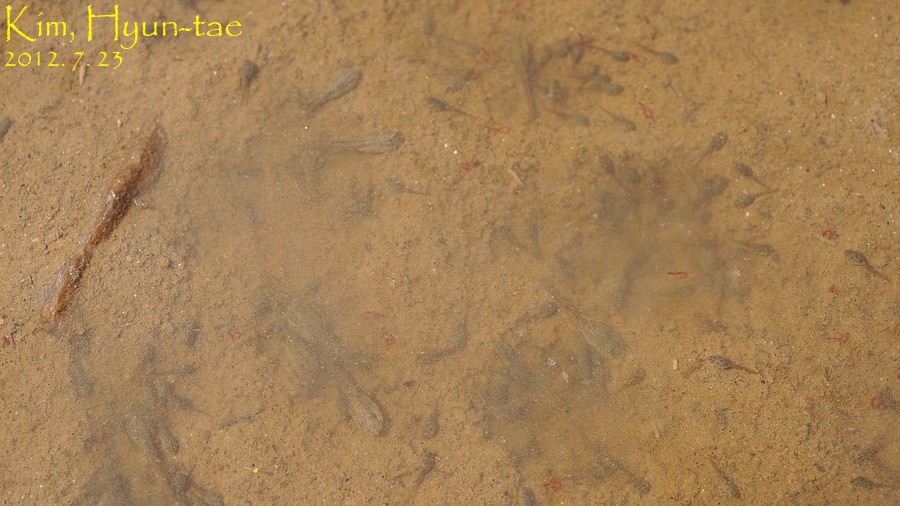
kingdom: Animalia
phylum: Chordata
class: Amphibia
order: Anura
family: Ranidae
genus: Pelophylax
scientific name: Pelophylax nigromaculatus
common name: Black-spotted pond frog
